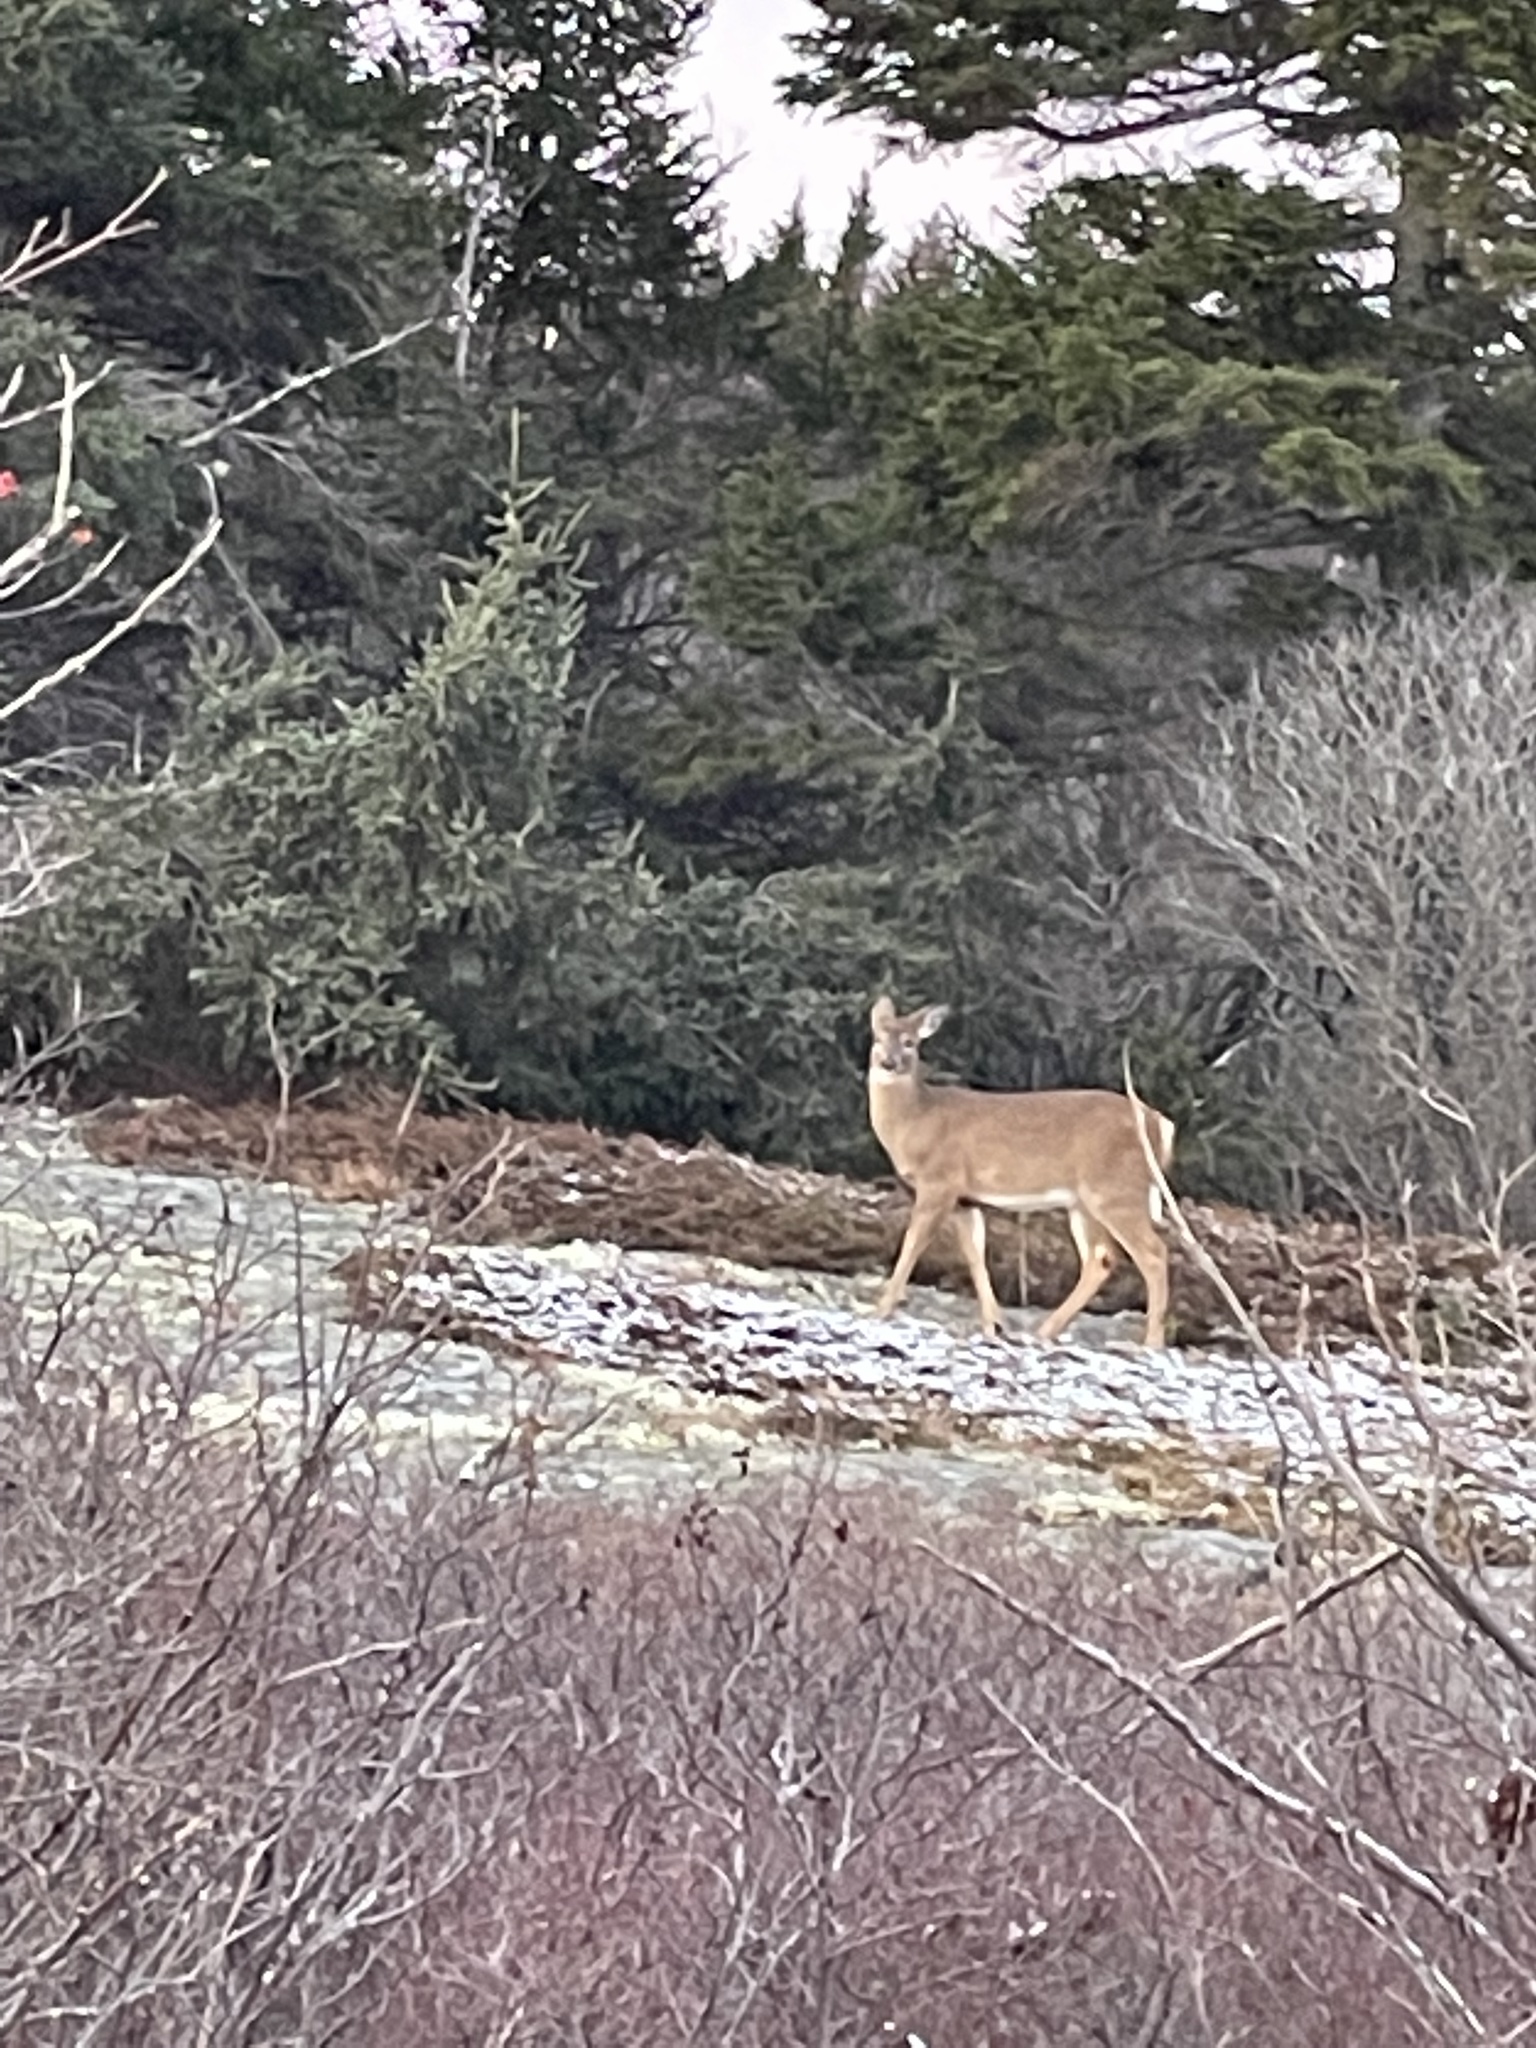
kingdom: Animalia
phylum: Chordata
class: Mammalia
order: Artiodactyla
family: Cervidae
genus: Odocoileus
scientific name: Odocoileus virginianus
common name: White-tailed deer
